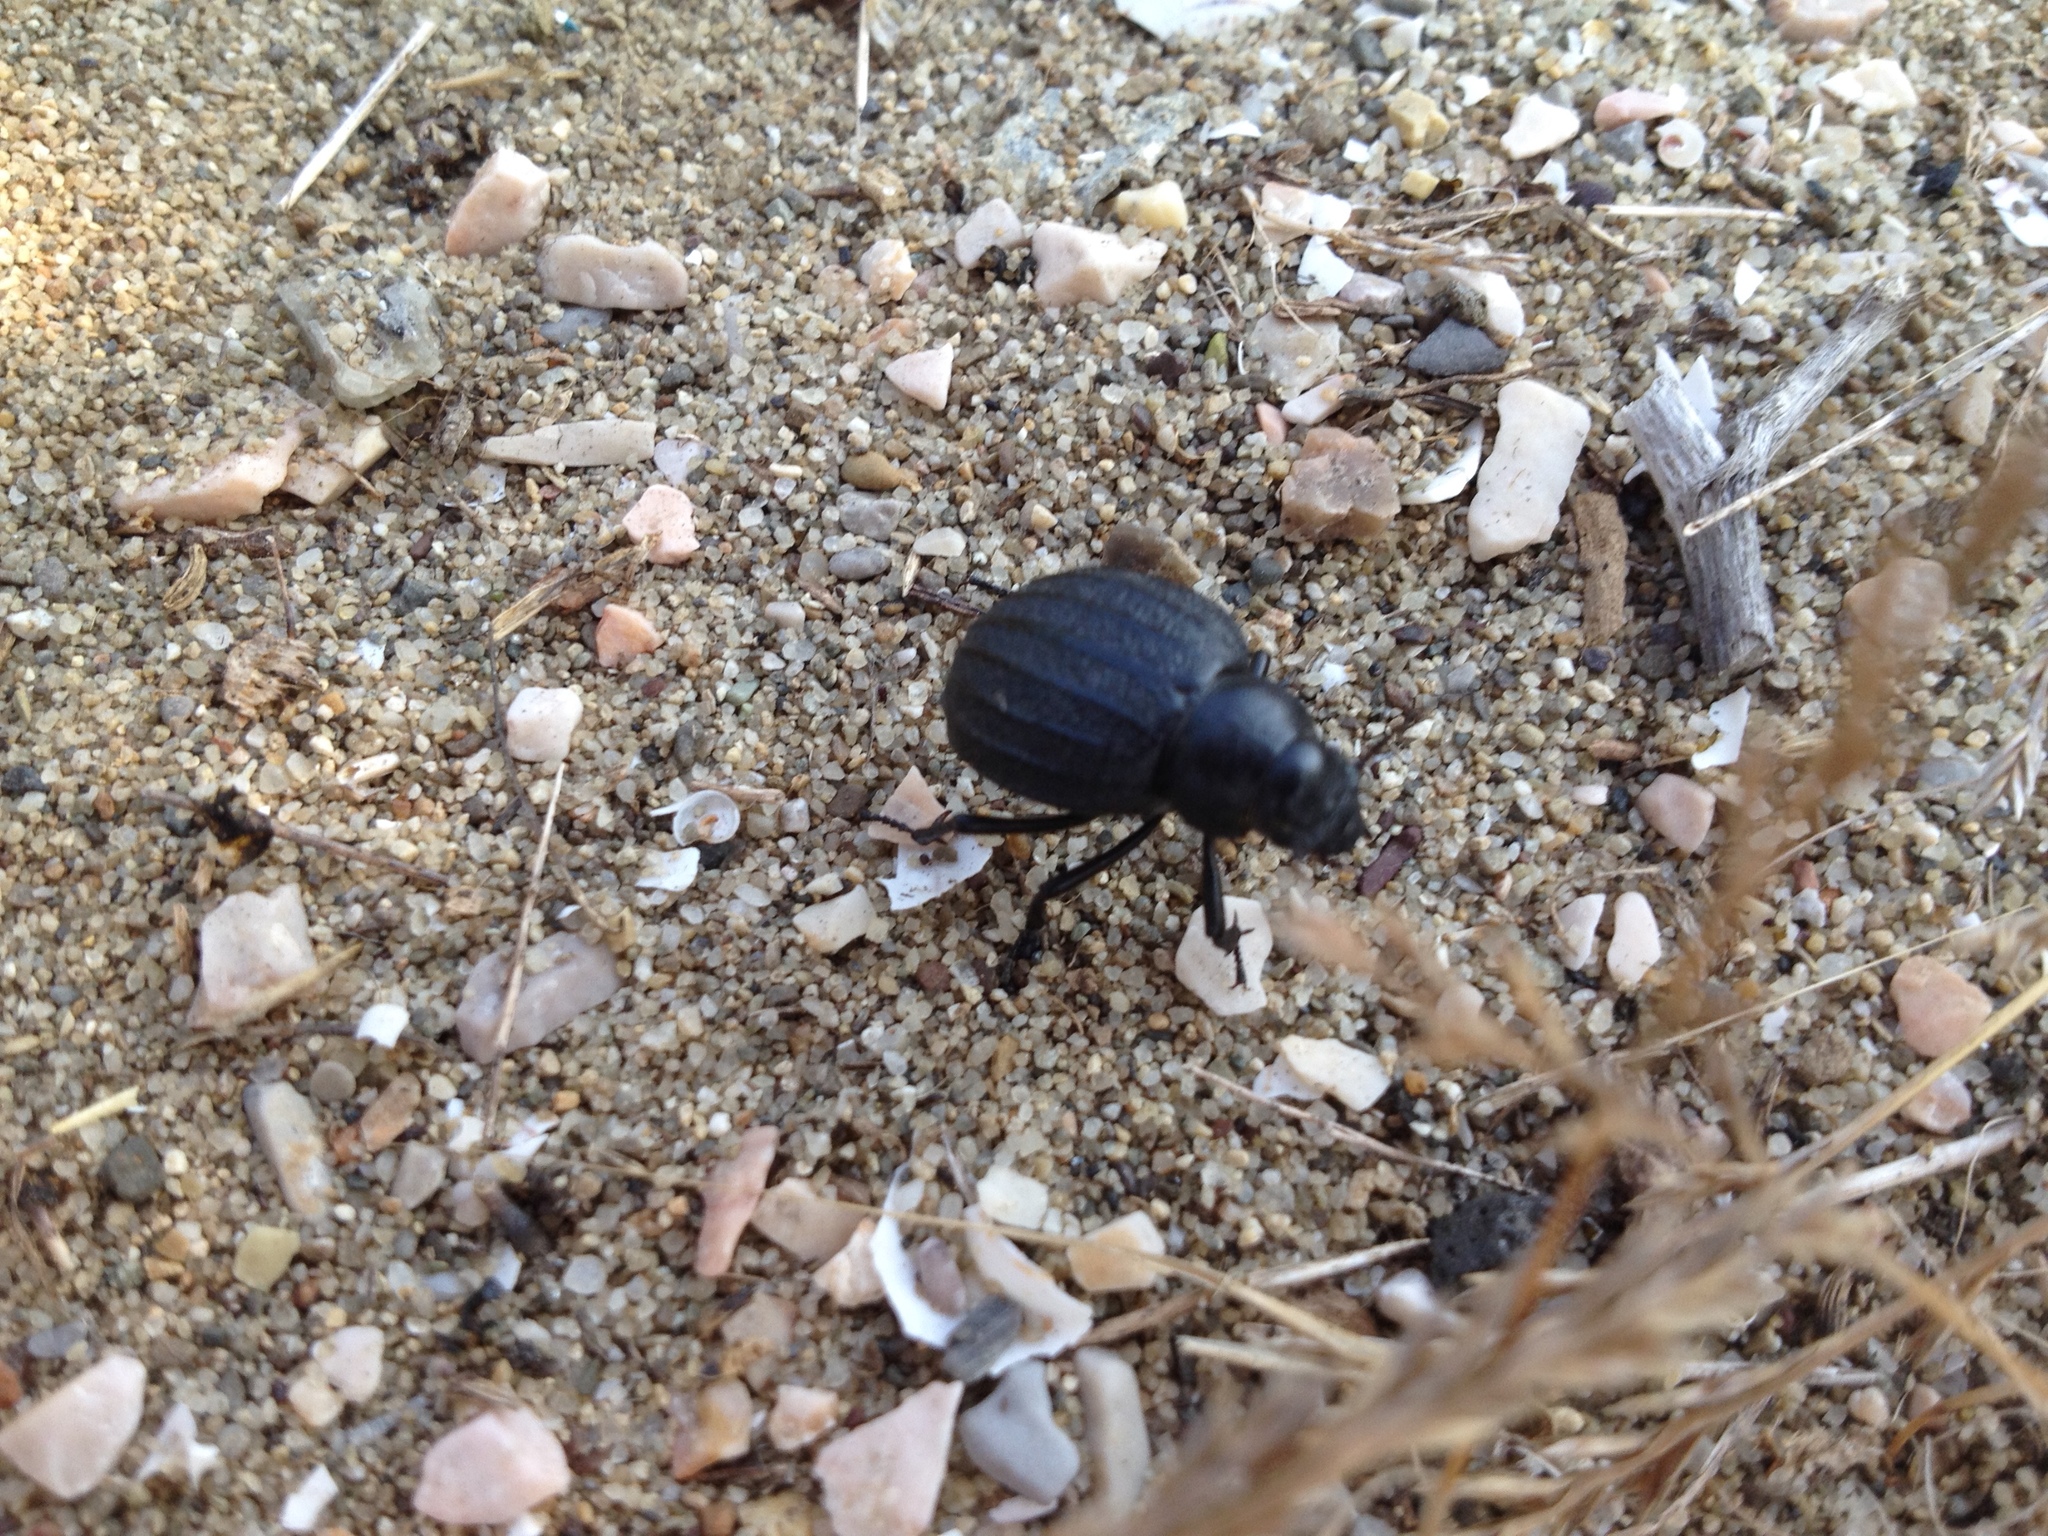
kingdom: Animalia
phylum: Arthropoda
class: Insecta
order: Coleoptera
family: Tenebrionidae
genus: Pimelia
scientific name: Pimelia bipunctata
